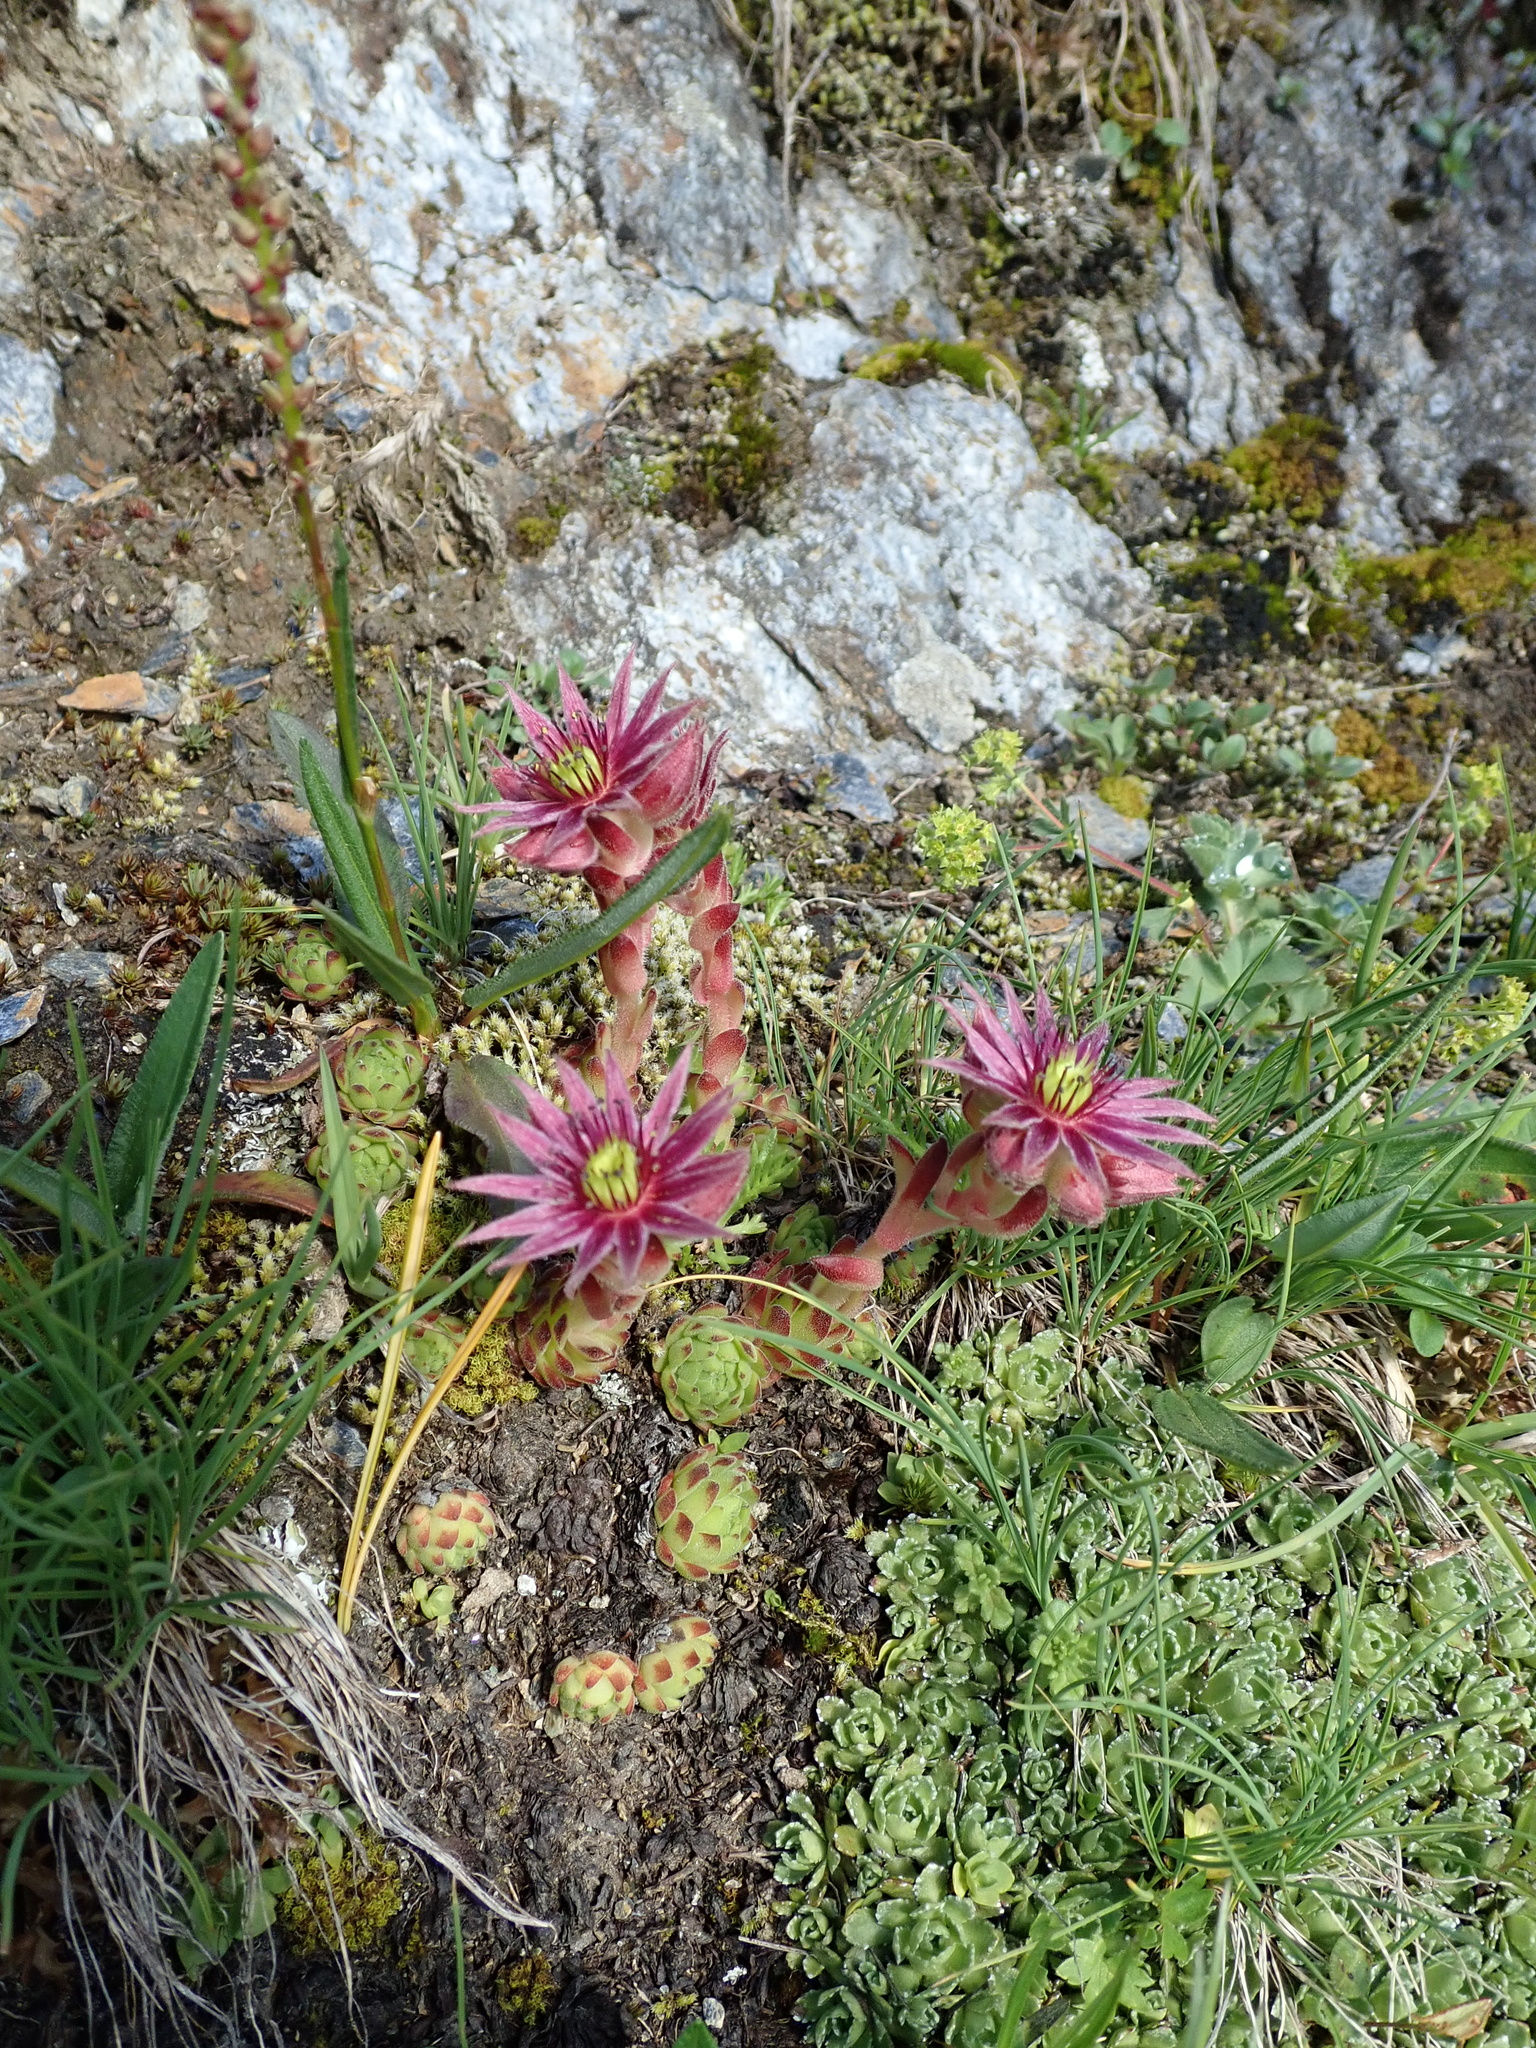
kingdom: Plantae
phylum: Tracheophyta
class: Magnoliopsida
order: Saxifragales
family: Crassulaceae
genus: Sempervivum
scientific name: Sempervivum montanum
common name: Mountain house-leek
